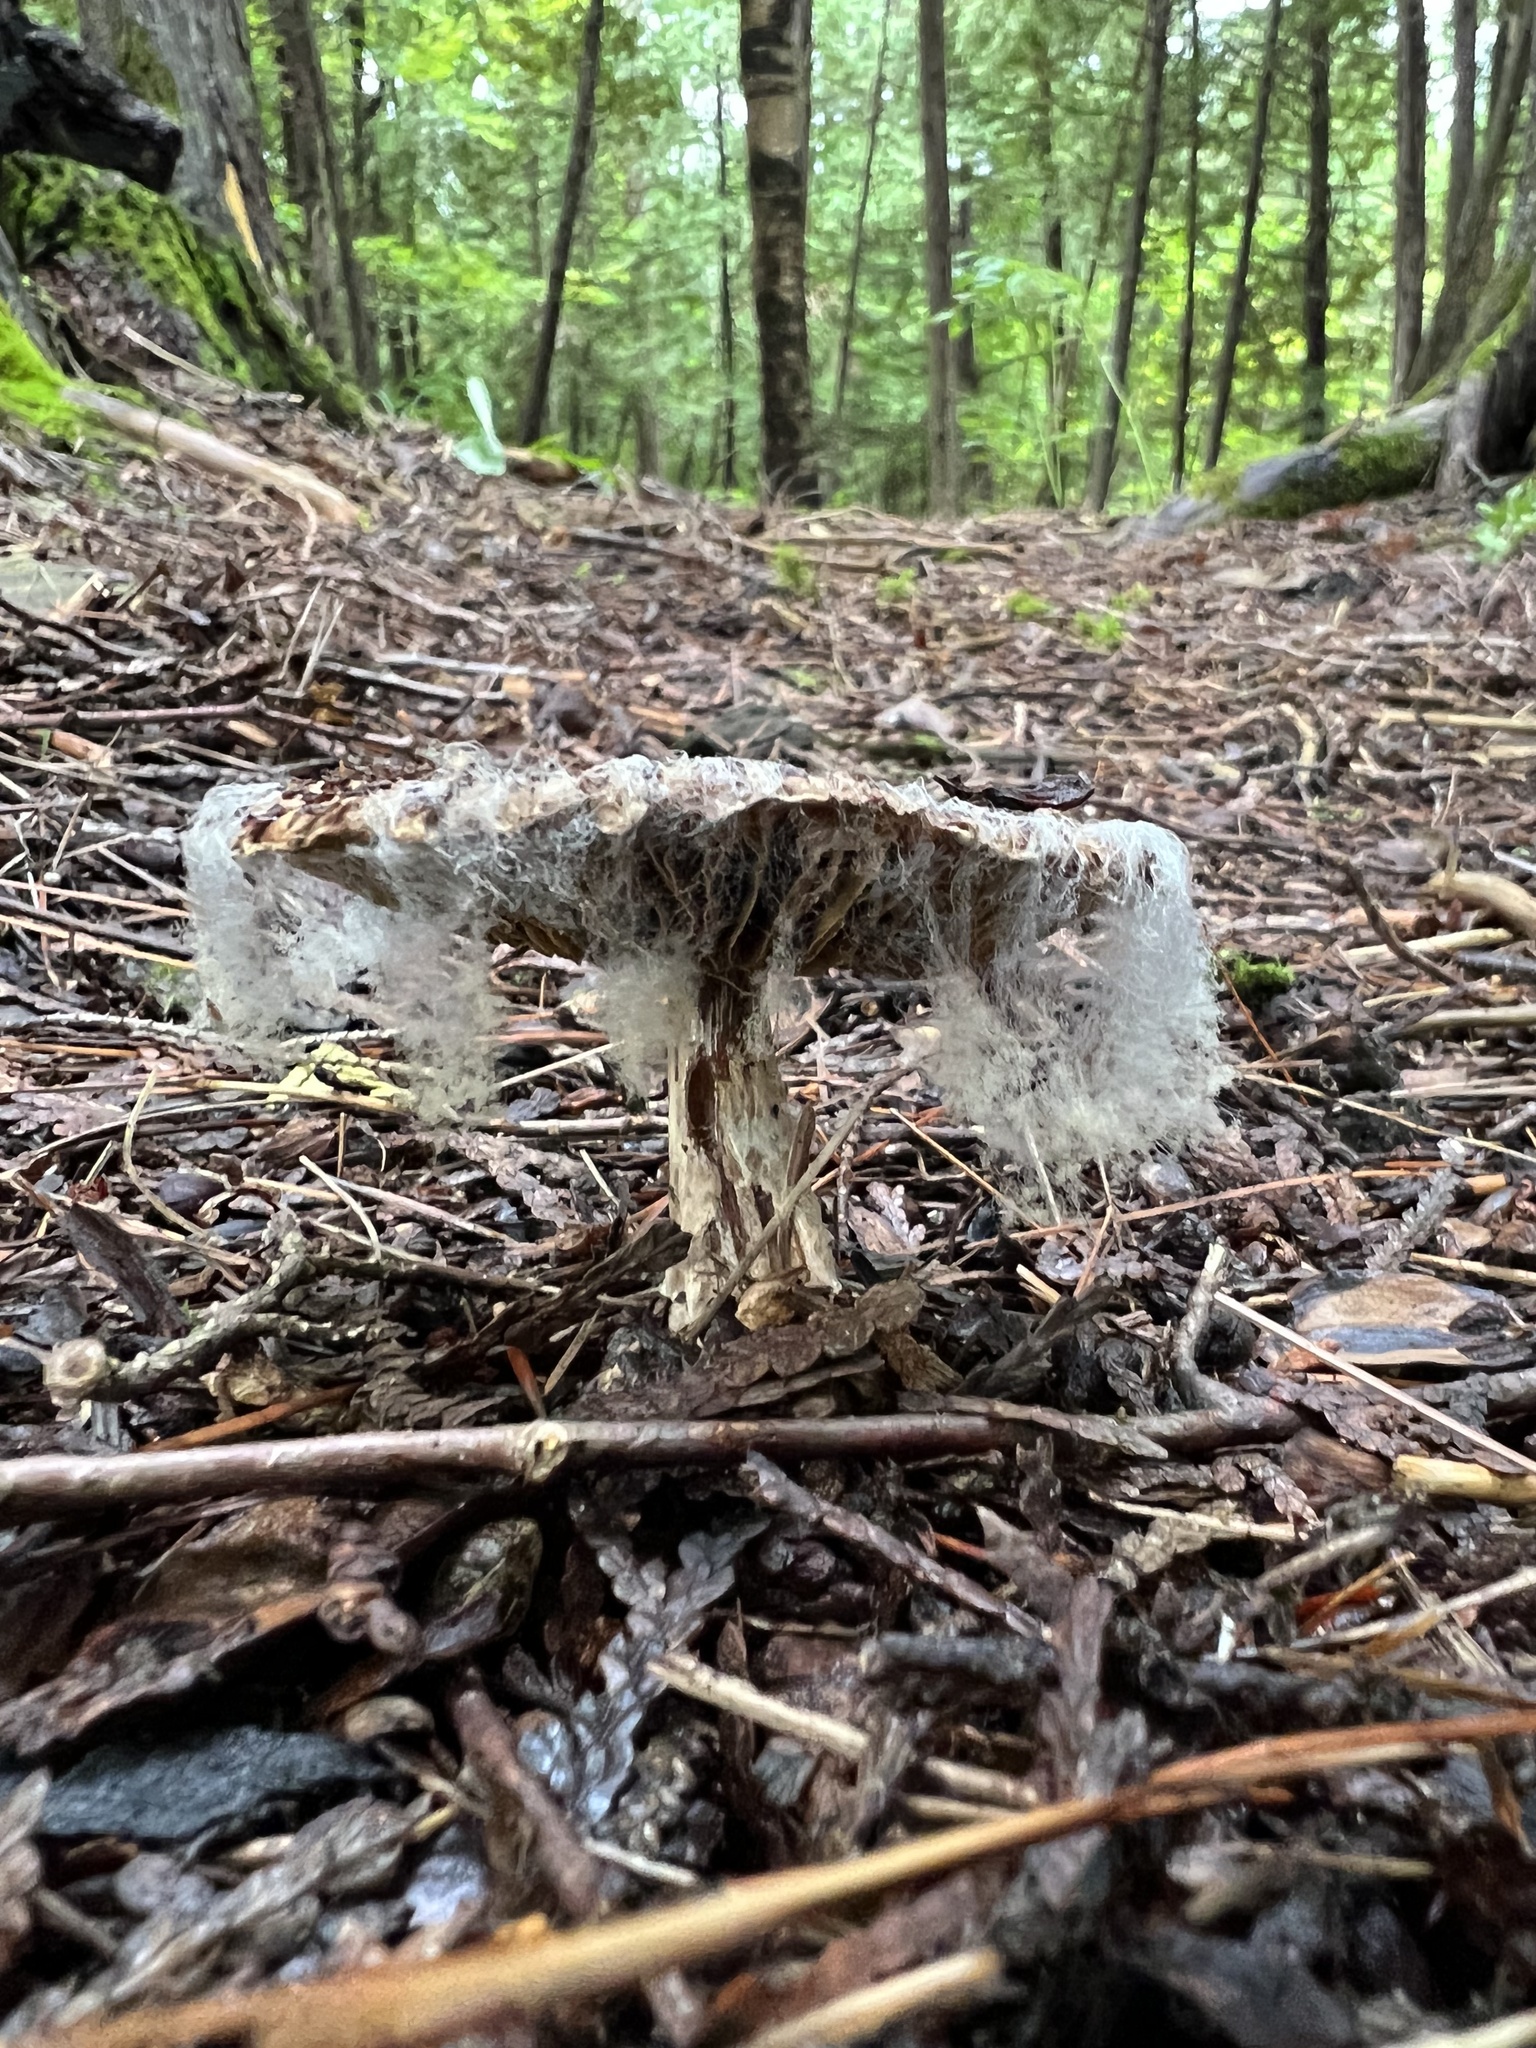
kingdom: Fungi
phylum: Mucoromycota
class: Mucoromycetes
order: Mucorales
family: Rhizopodaceae
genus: Syzygites
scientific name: Syzygites megalocarpus
